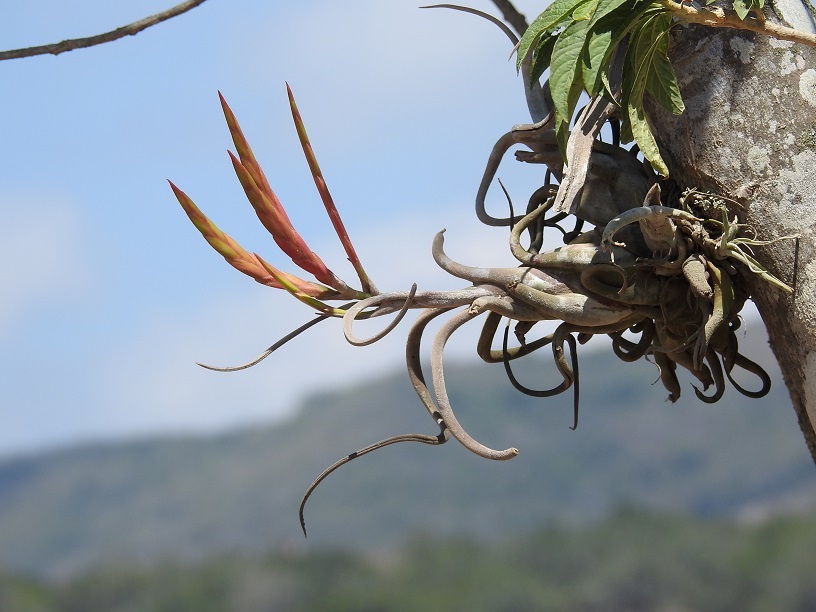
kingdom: Plantae
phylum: Tracheophyta
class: Liliopsida
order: Poales
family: Bromeliaceae
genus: Tillandsia
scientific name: Tillandsia caput-medusae
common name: Octopus plant
